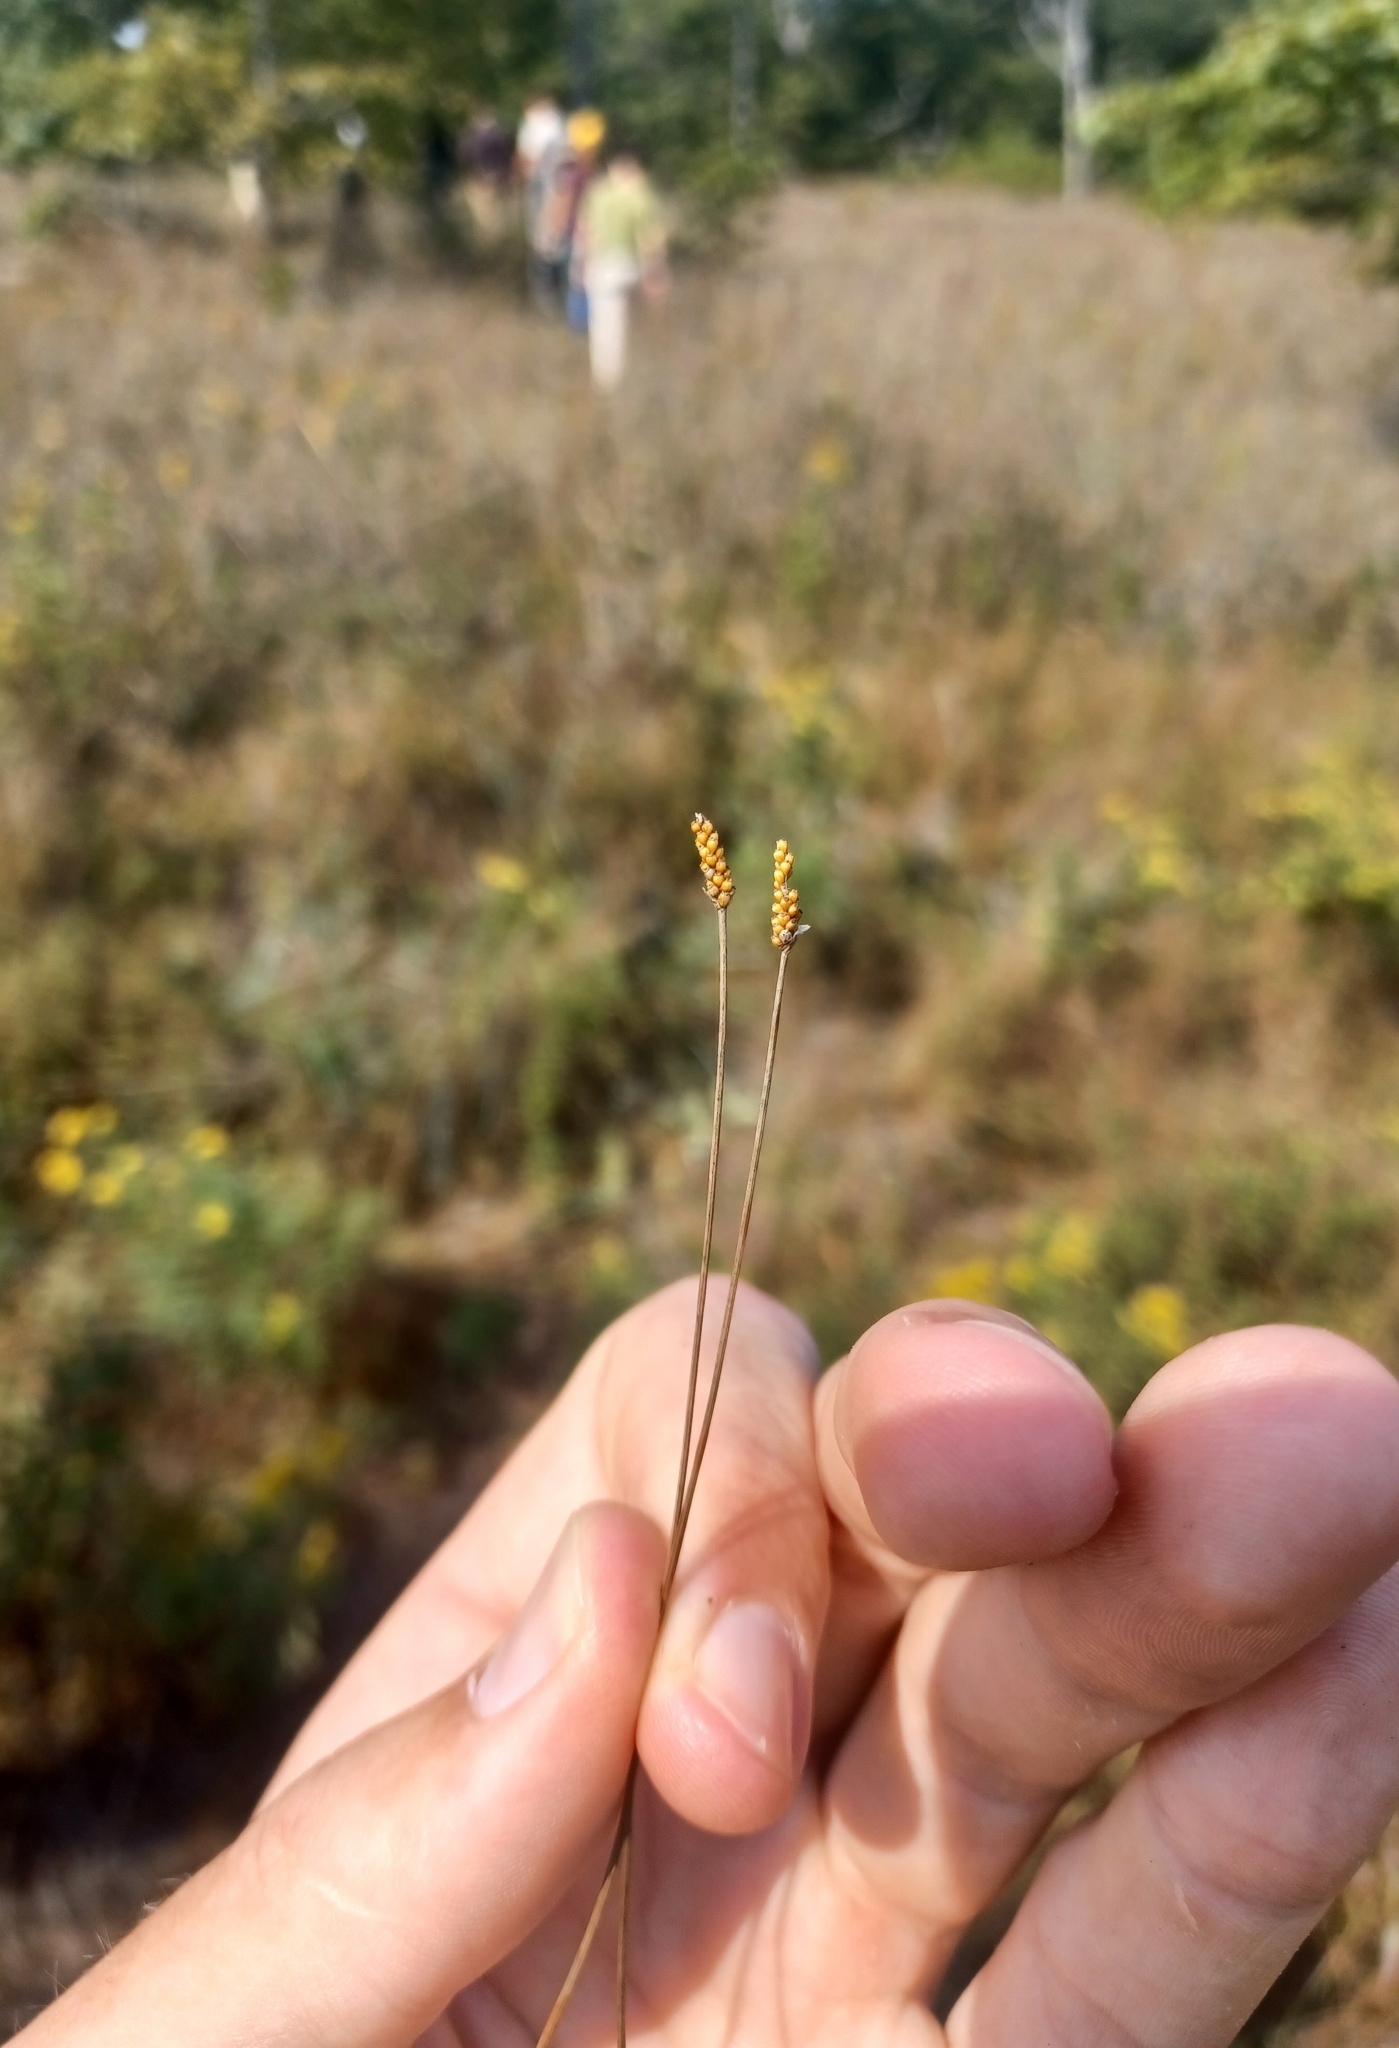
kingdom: Plantae
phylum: Tracheophyta
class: Liliopsida
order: Poales
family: Cyperaceae
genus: Eleocharis
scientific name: Eleocharis elliptica
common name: Capitate spikerush
